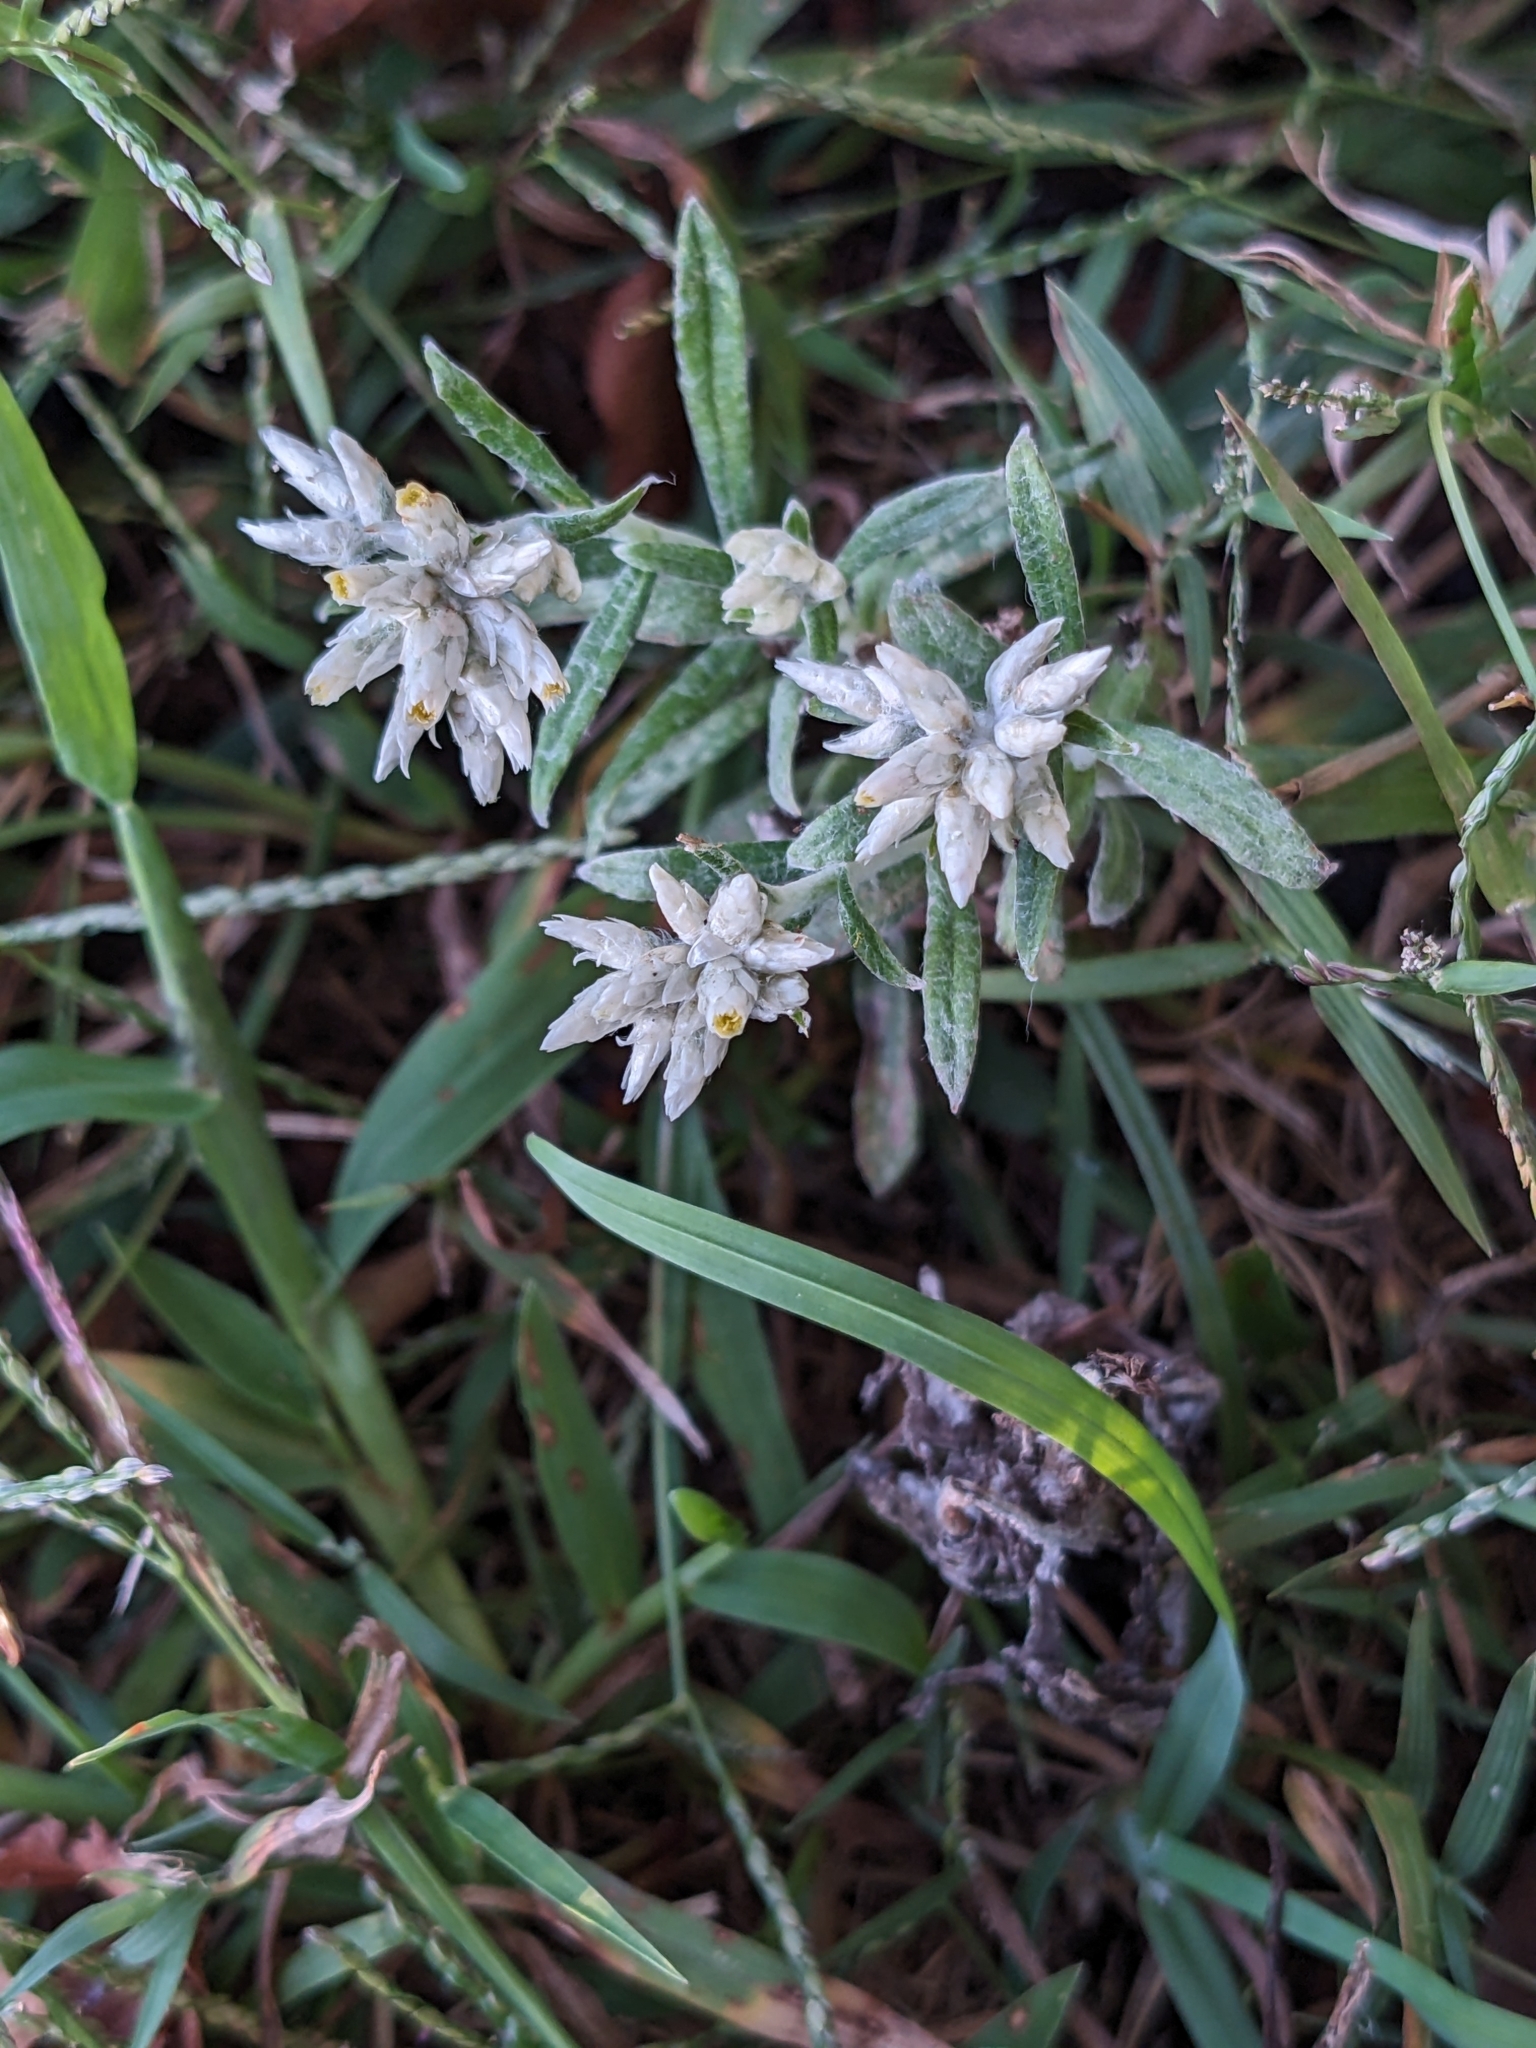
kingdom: Plantae
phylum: Tracheophyta
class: Magnoliopsida
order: Asterales
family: Asteraceae
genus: Pseudognaphalium
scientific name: Pseudognaphalium obtusifolium
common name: Eastern rabbit-tobacco
